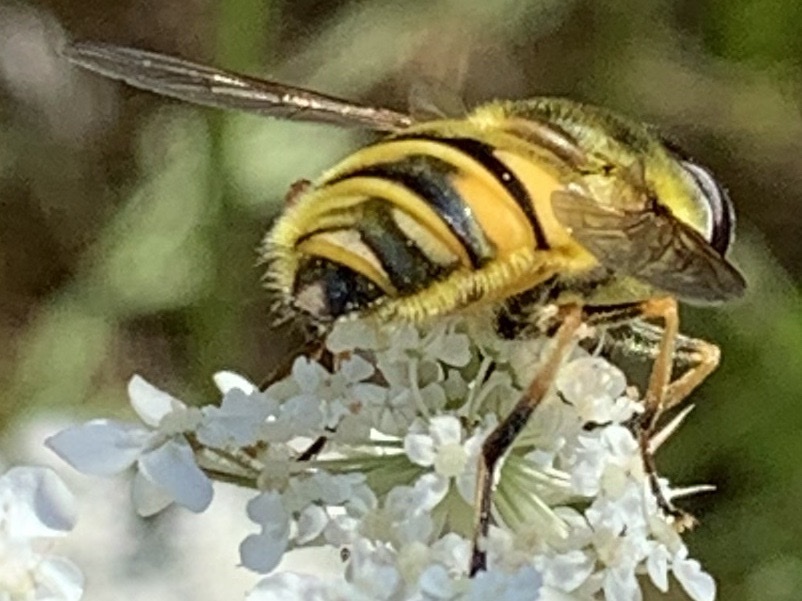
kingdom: Animalia
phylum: Arthropoda
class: Insecta
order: Diptera
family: Syrphidae
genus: Myathropa
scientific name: Myathropa florea
